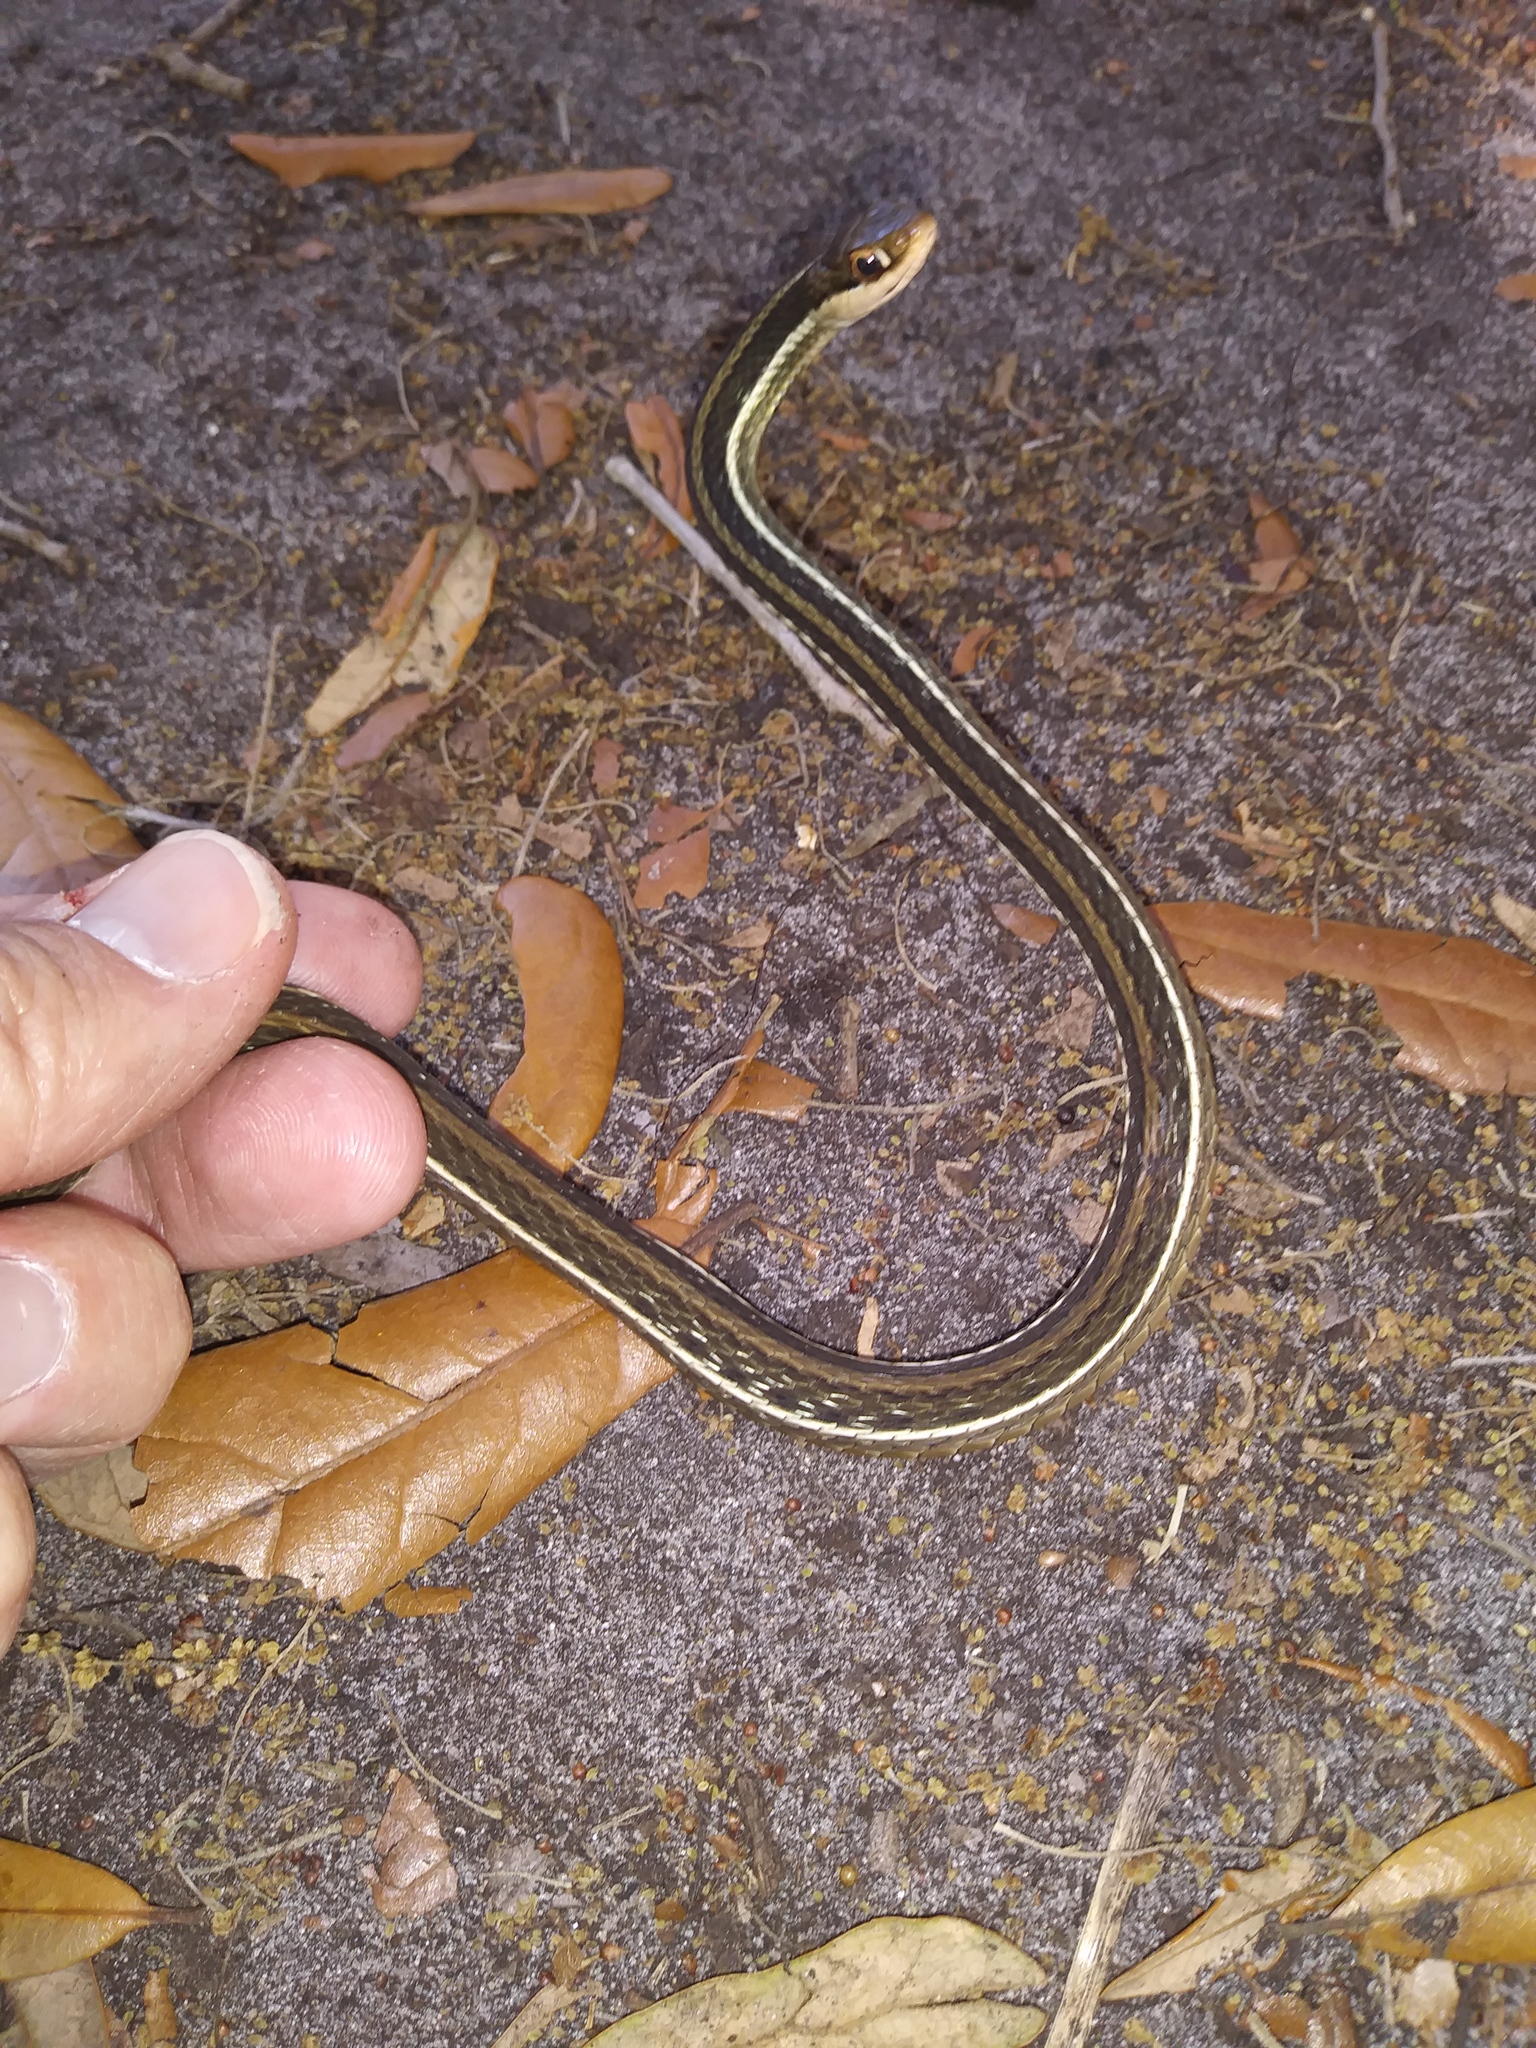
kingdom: Animalia
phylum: Chordata
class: Squamata
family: Colubridae
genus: Thamnophis
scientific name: Thamnophis saurita
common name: Eastern ribbonsnake
